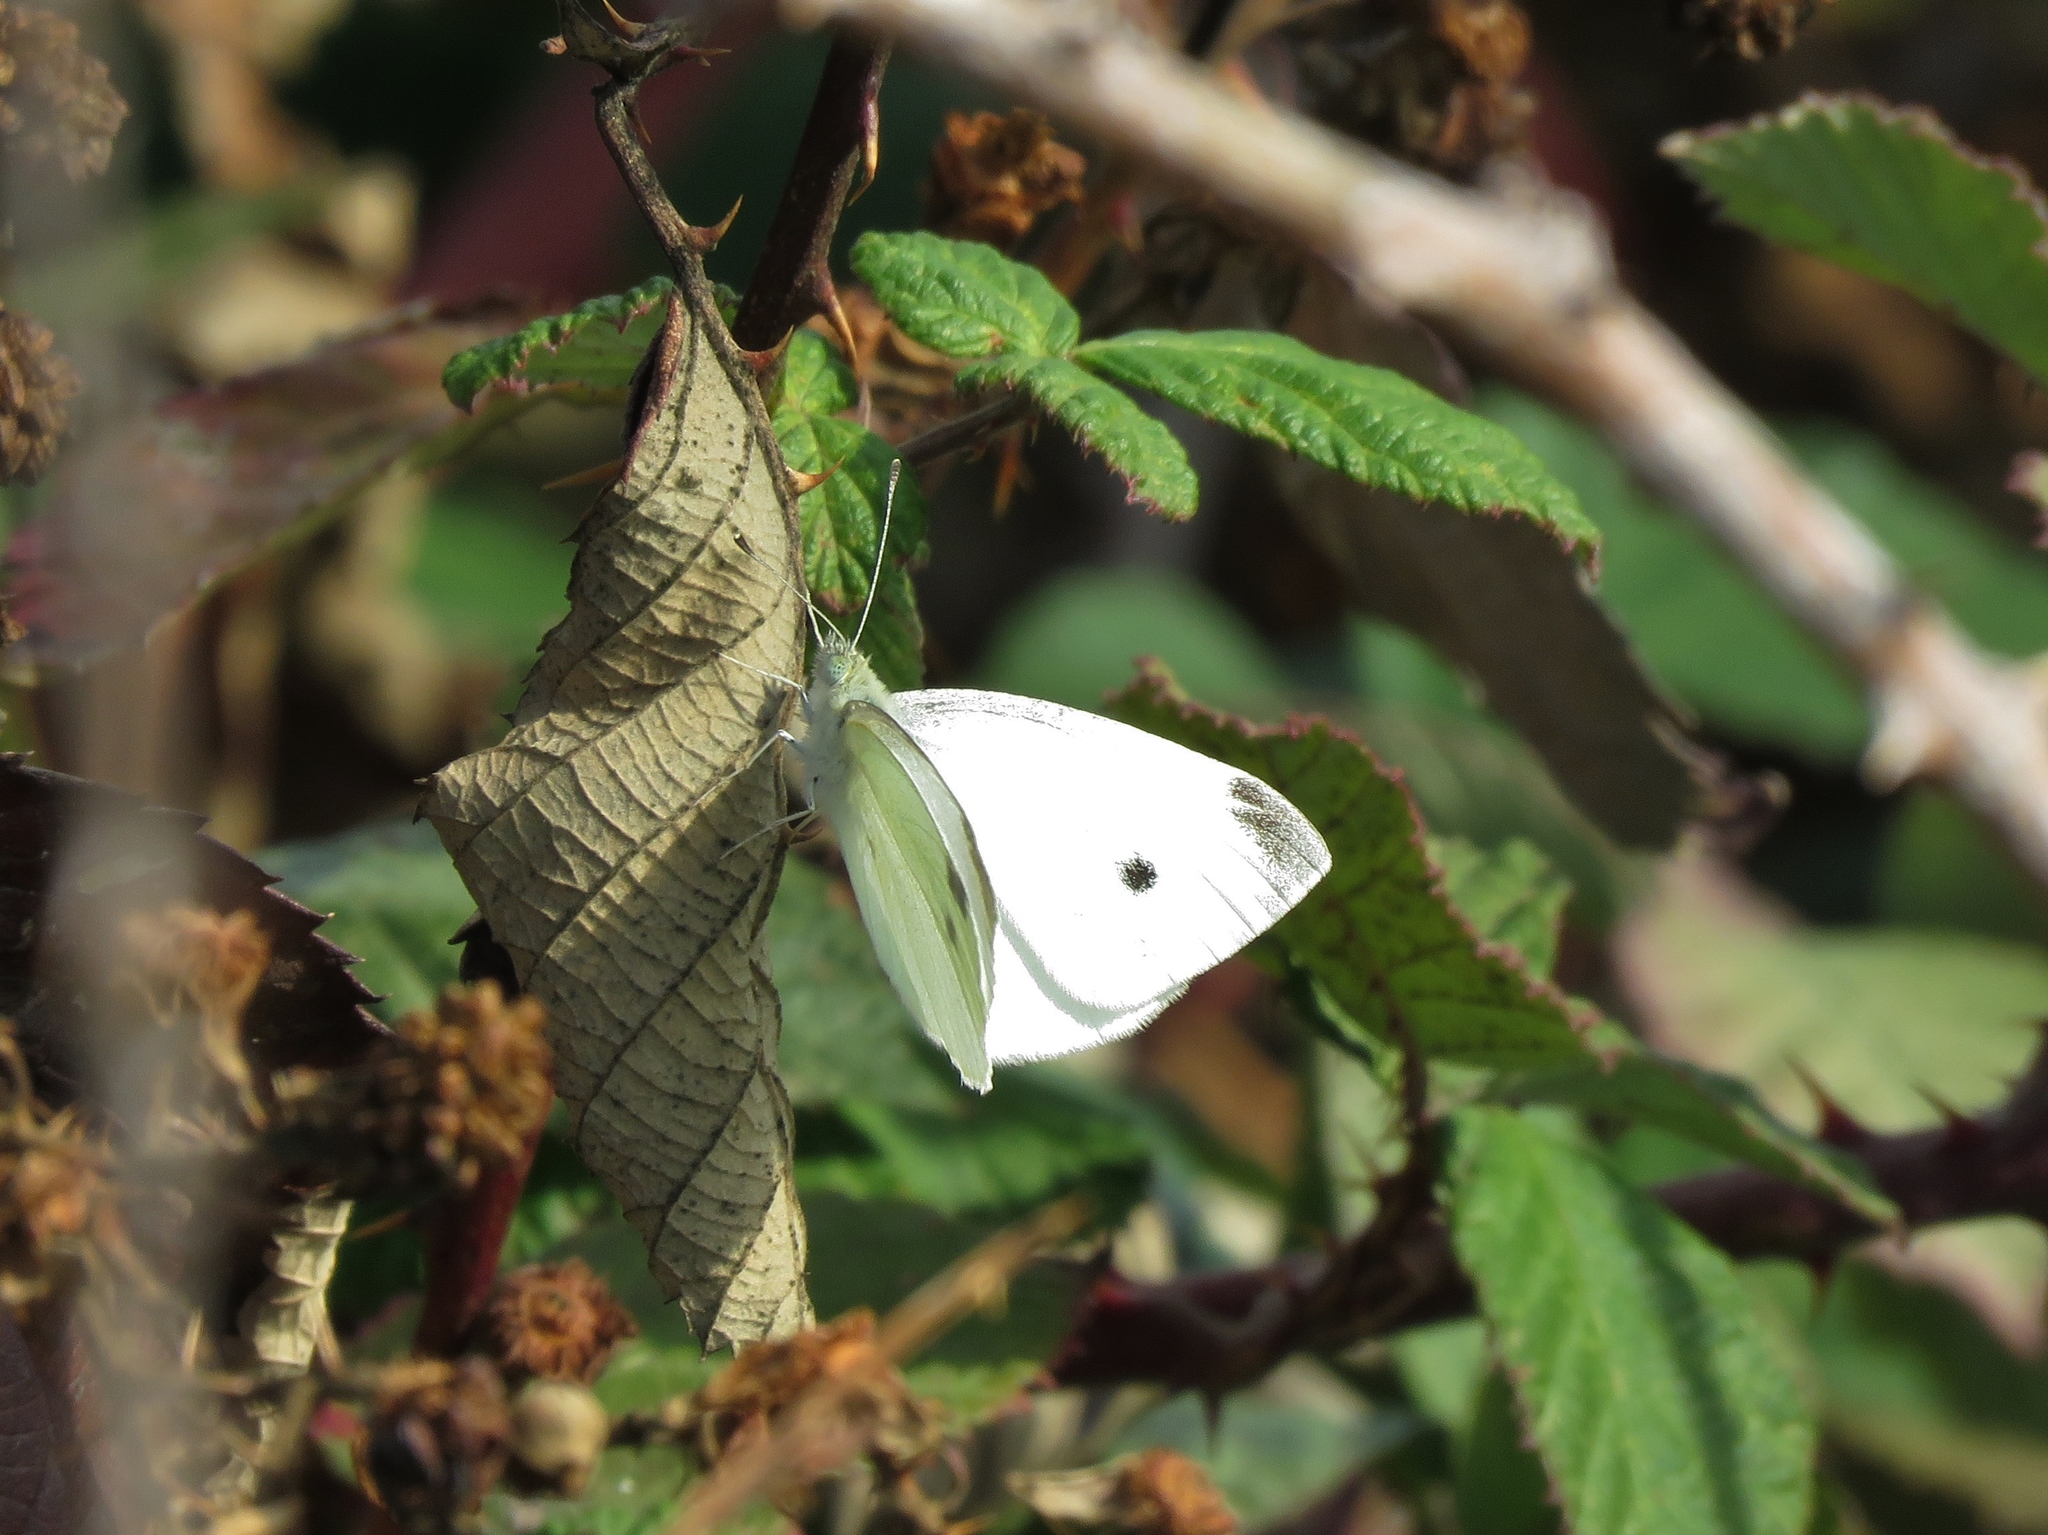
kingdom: Animalia
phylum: Arthropoda
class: Insecta
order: Lepidoptera
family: Pieridae
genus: Pieris
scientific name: Pieris rapae
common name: Small white
